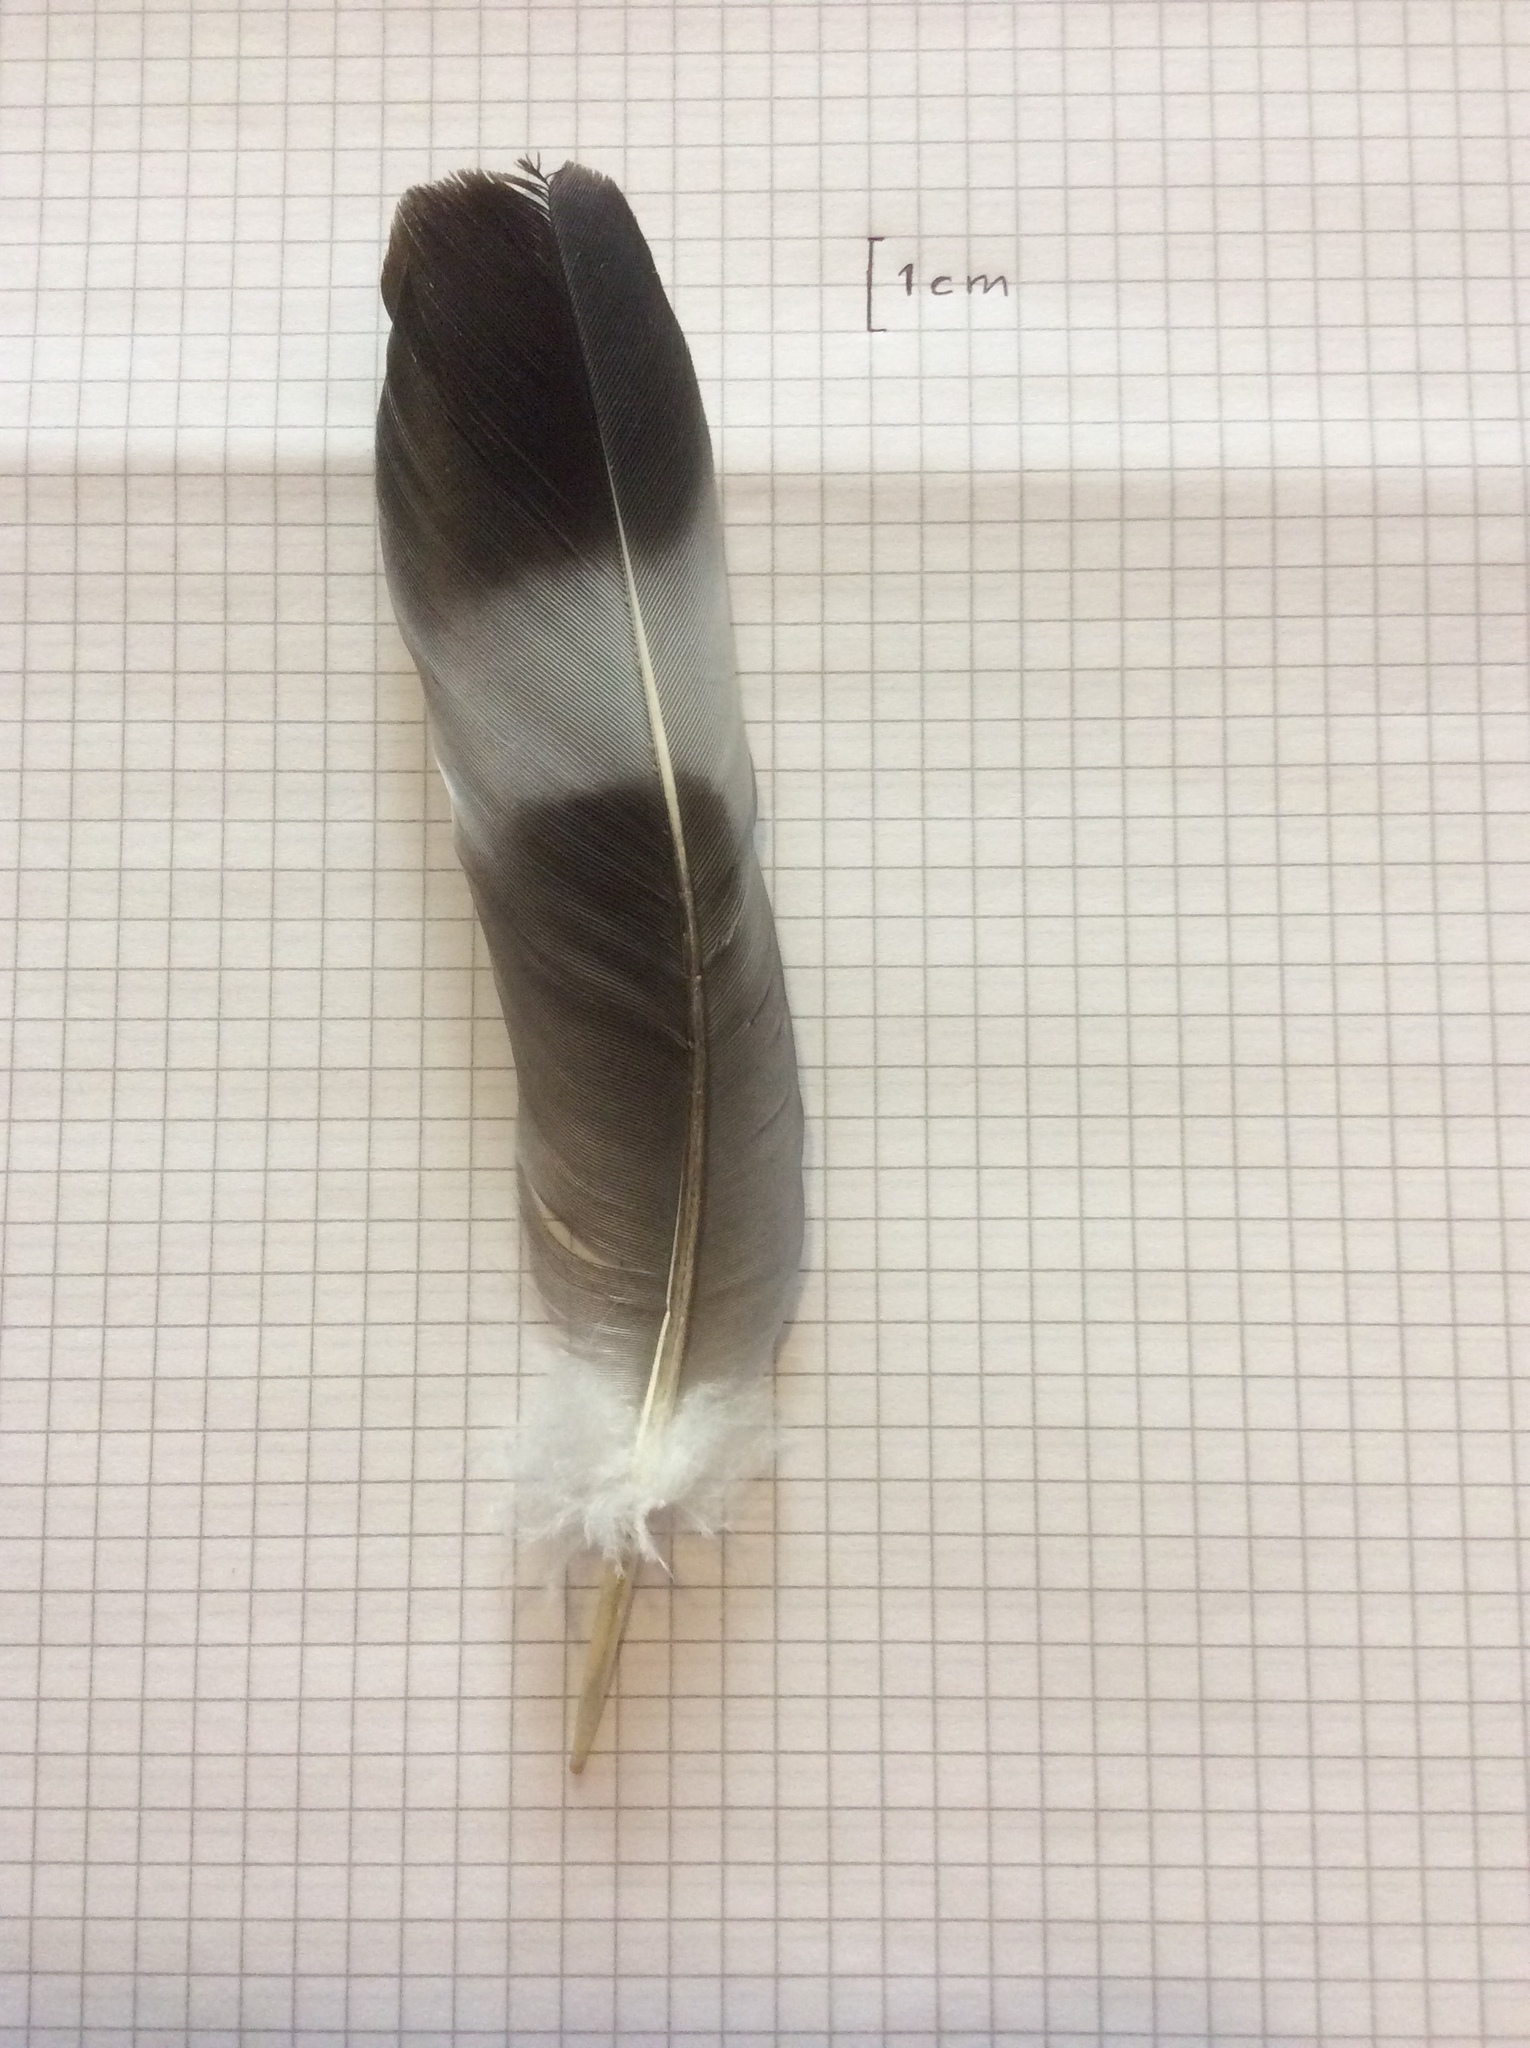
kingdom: Animalia
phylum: Chordata
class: Aves
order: Columbiformes
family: Columbidae
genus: Columba
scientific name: Columba palumbus
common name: Common wood pigeon
